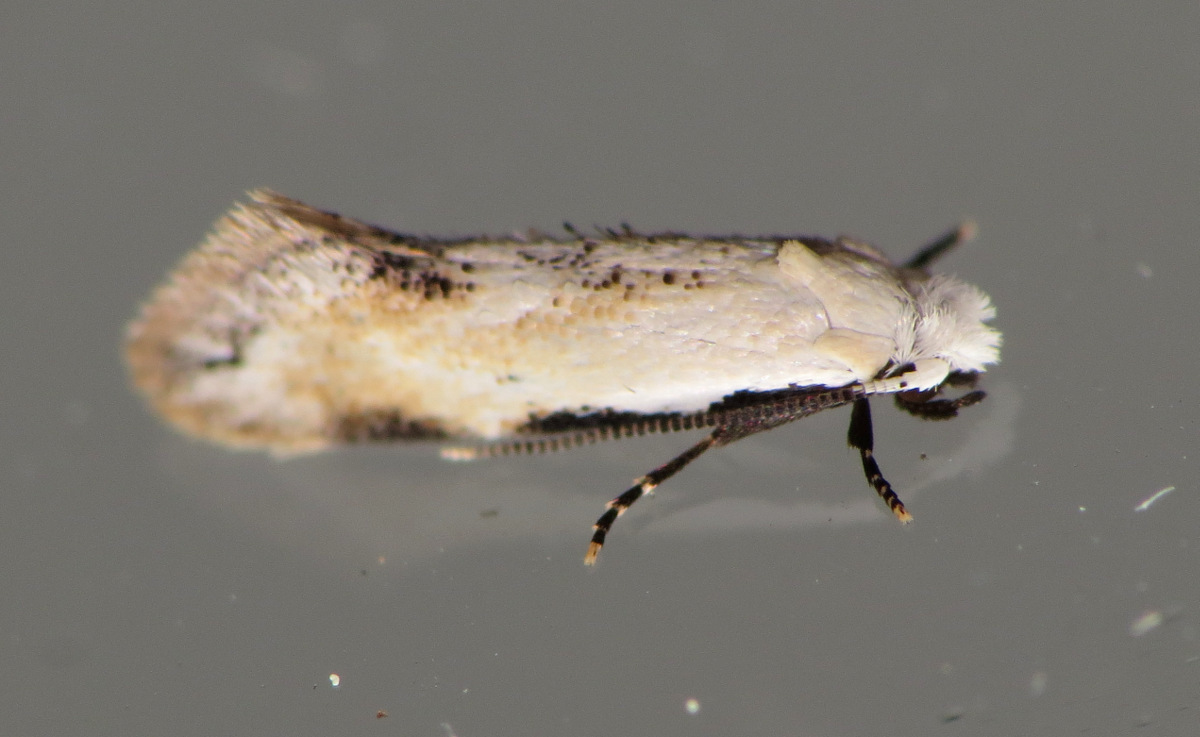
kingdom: Animalia
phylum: Arthropoda
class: Insecta
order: Lepidoptera
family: Meessiidae
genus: Mea
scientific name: Mea skinnerella
